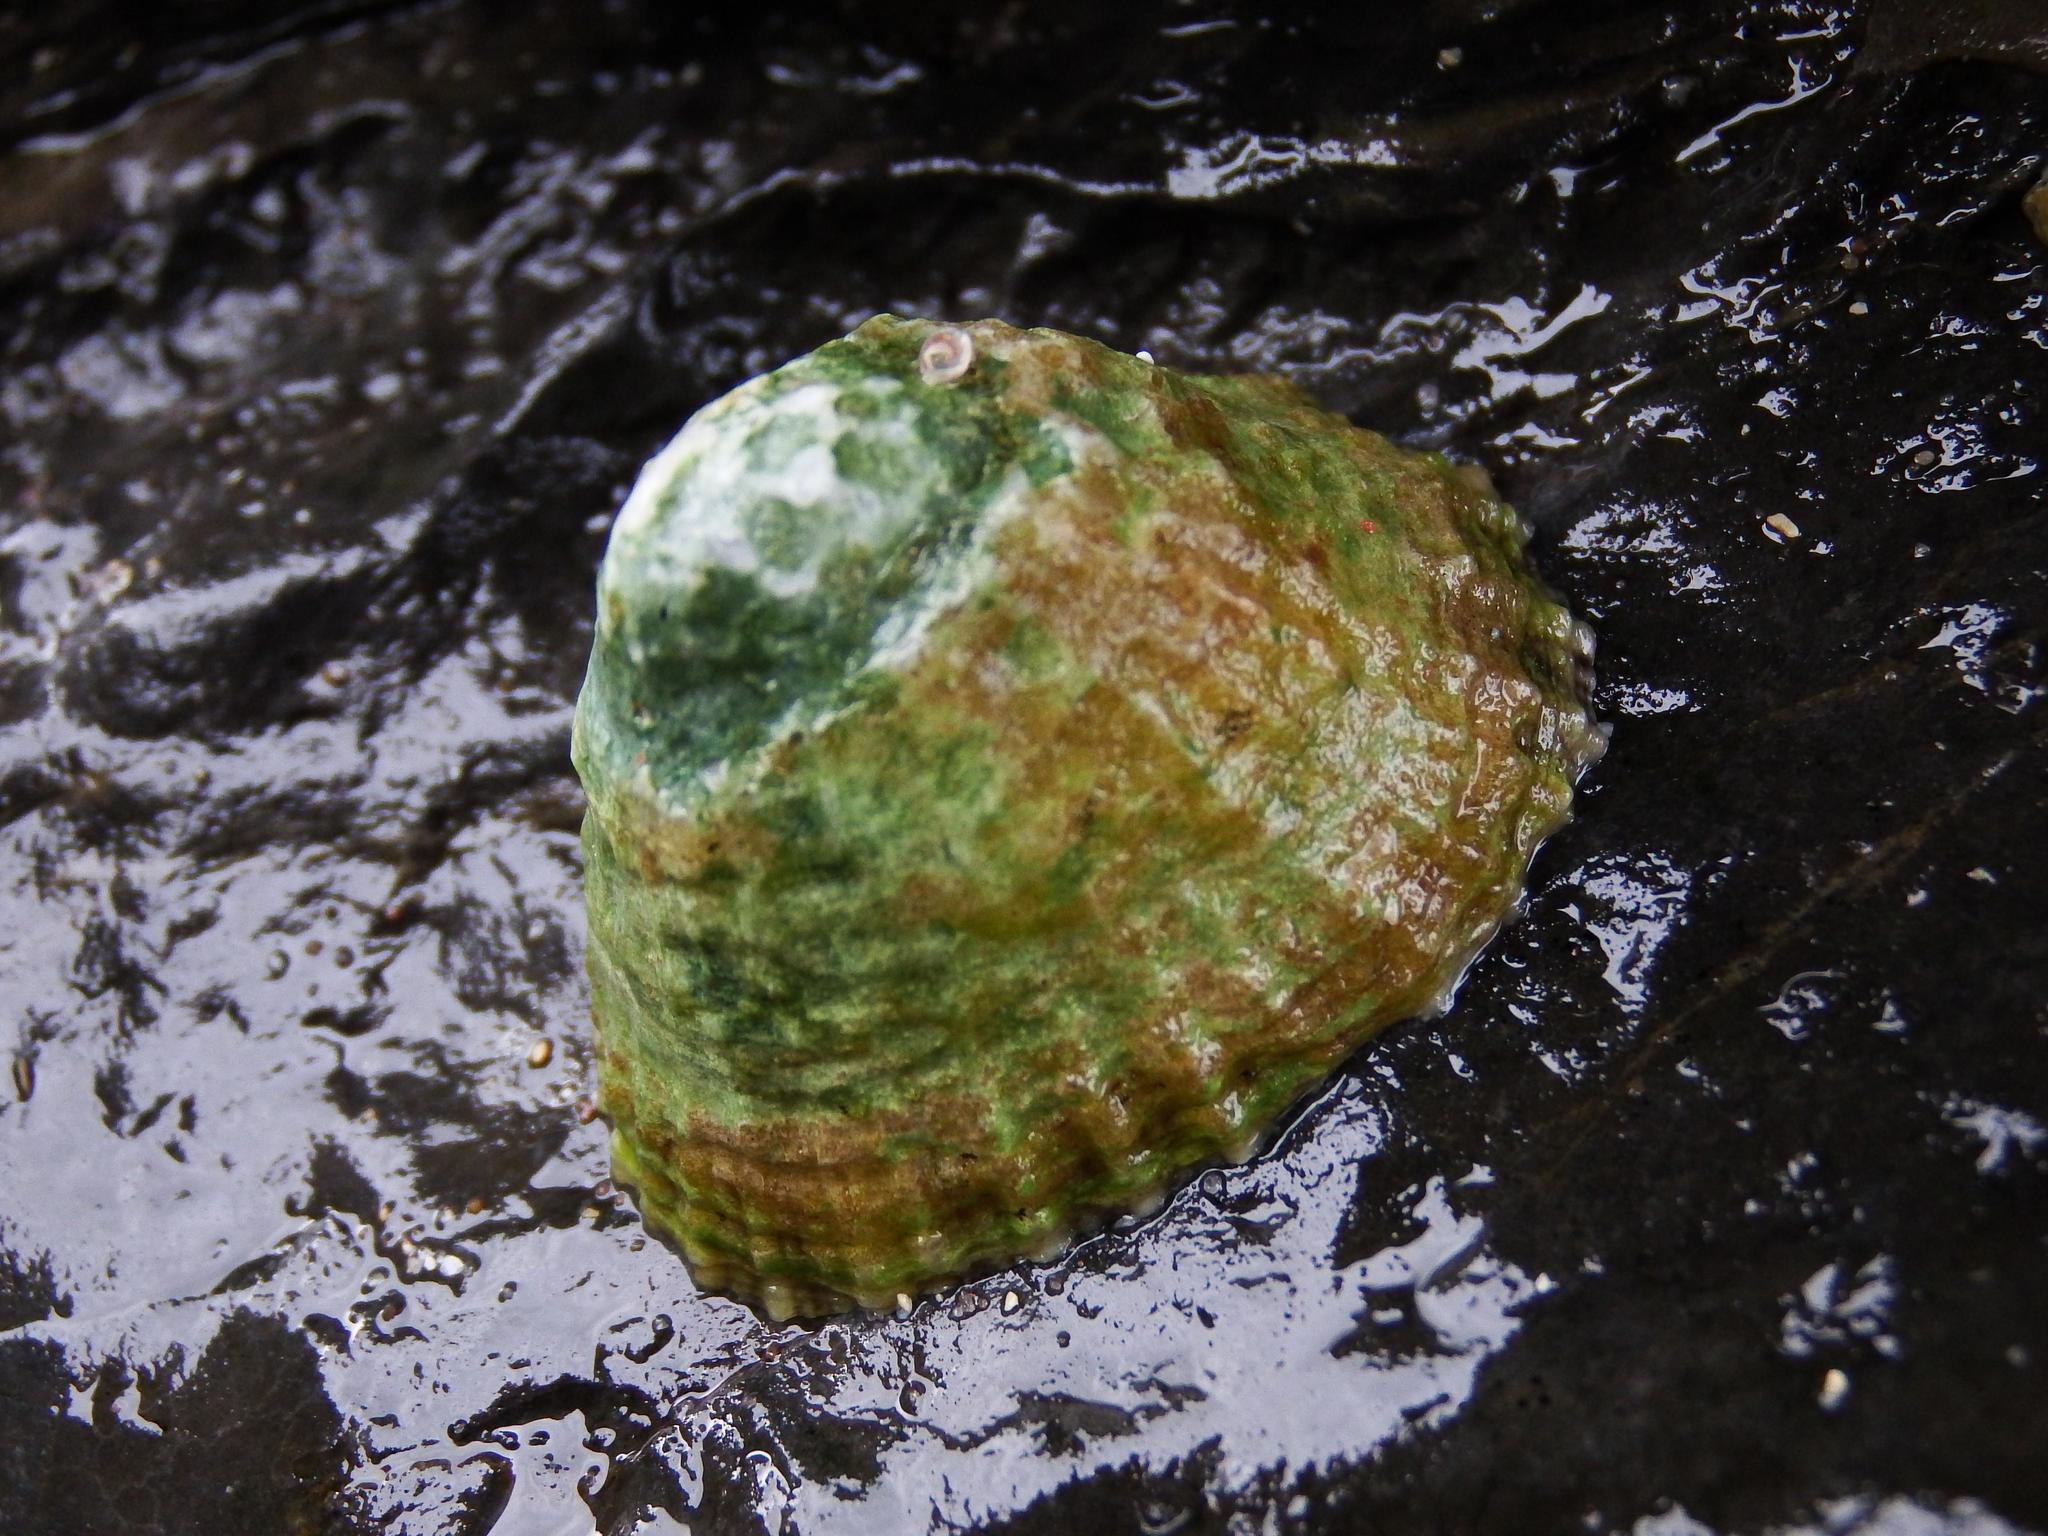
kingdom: Animalia
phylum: Mollusca
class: Gastropoda
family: Patellidae
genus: Patella
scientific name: Patella vulgata
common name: Common limpet
